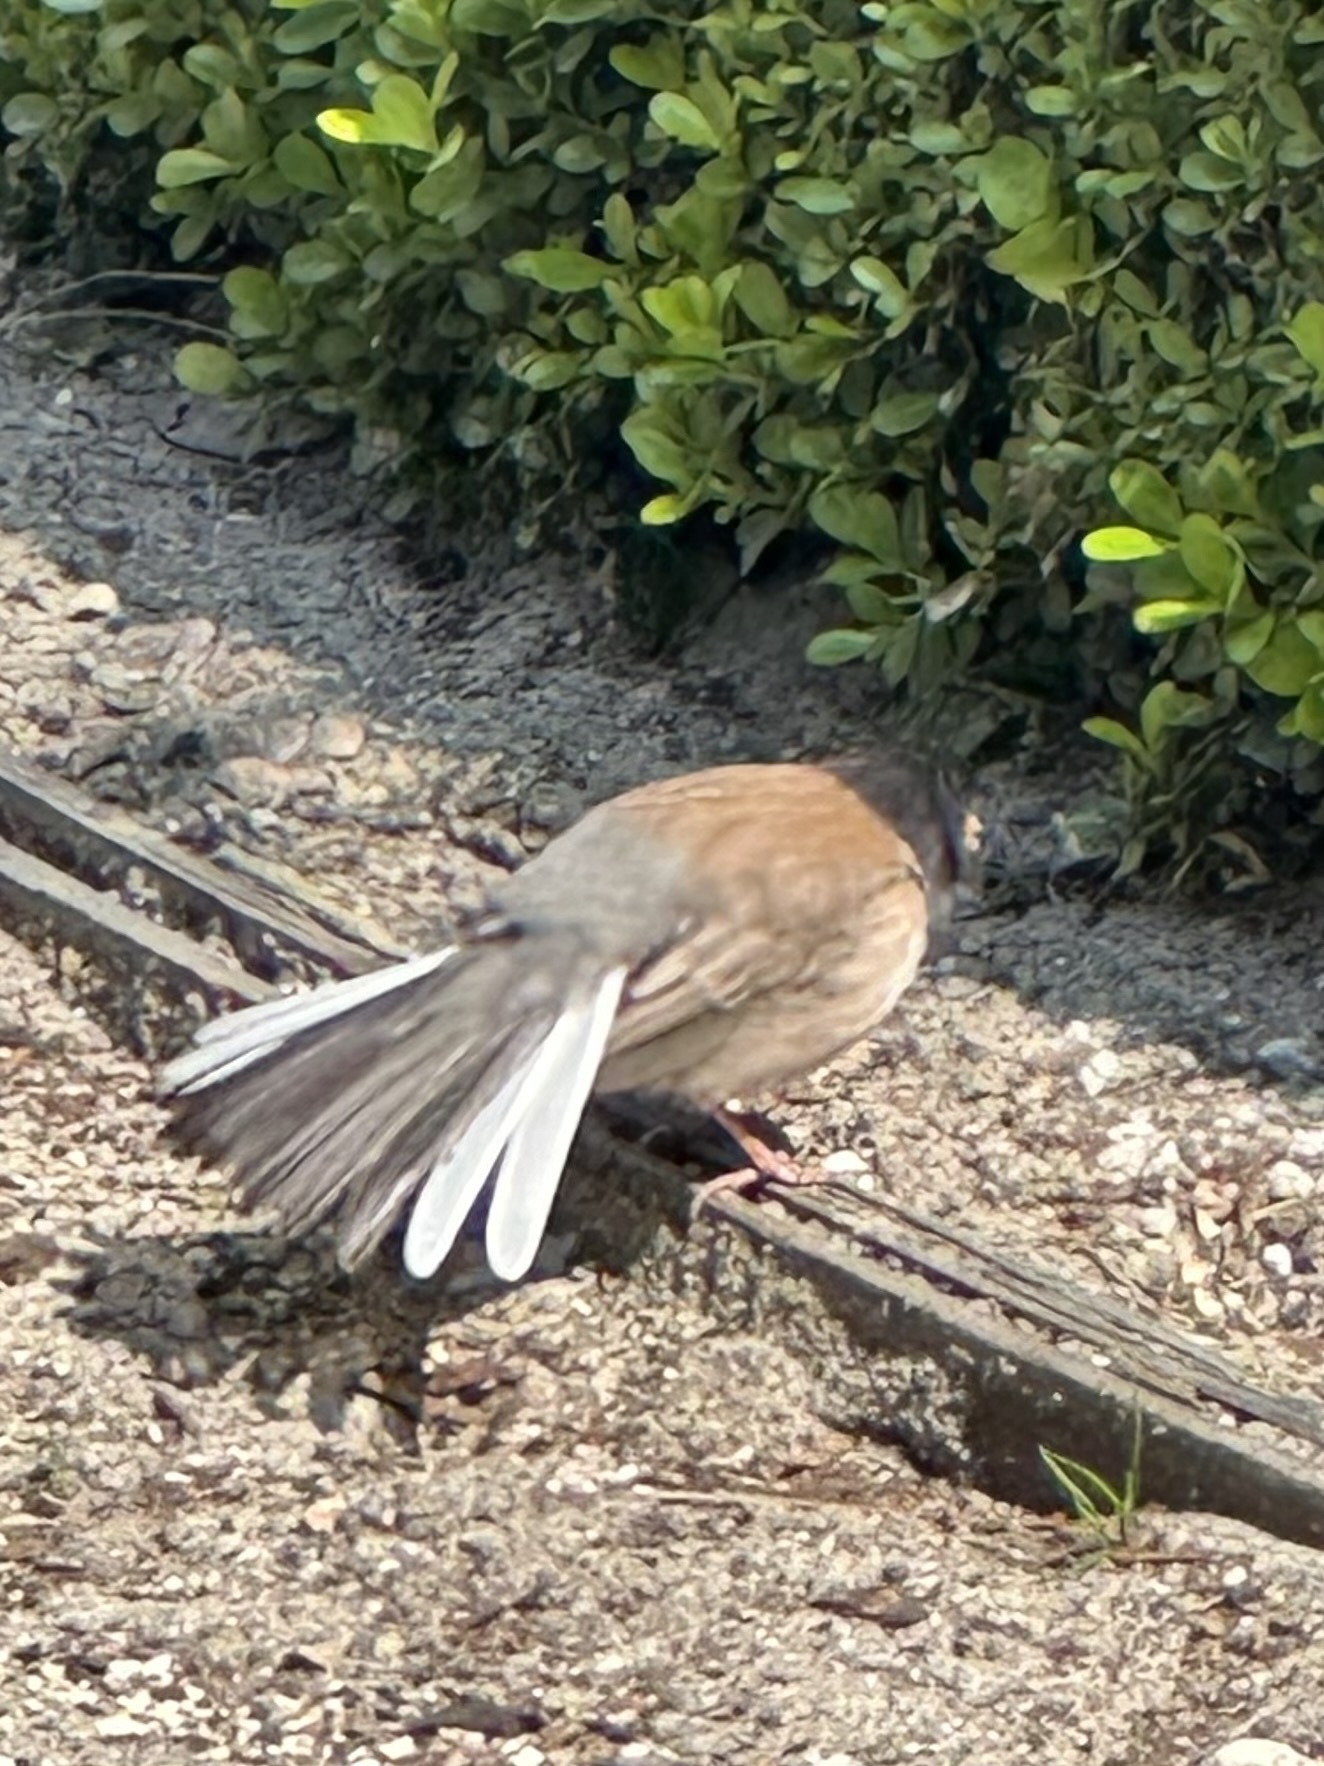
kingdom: Animalia
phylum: Chordata
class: Aves
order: Passeriformes
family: Passerellidae
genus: Junco
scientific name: Junco hyemalis
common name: Dark-eyed junco
